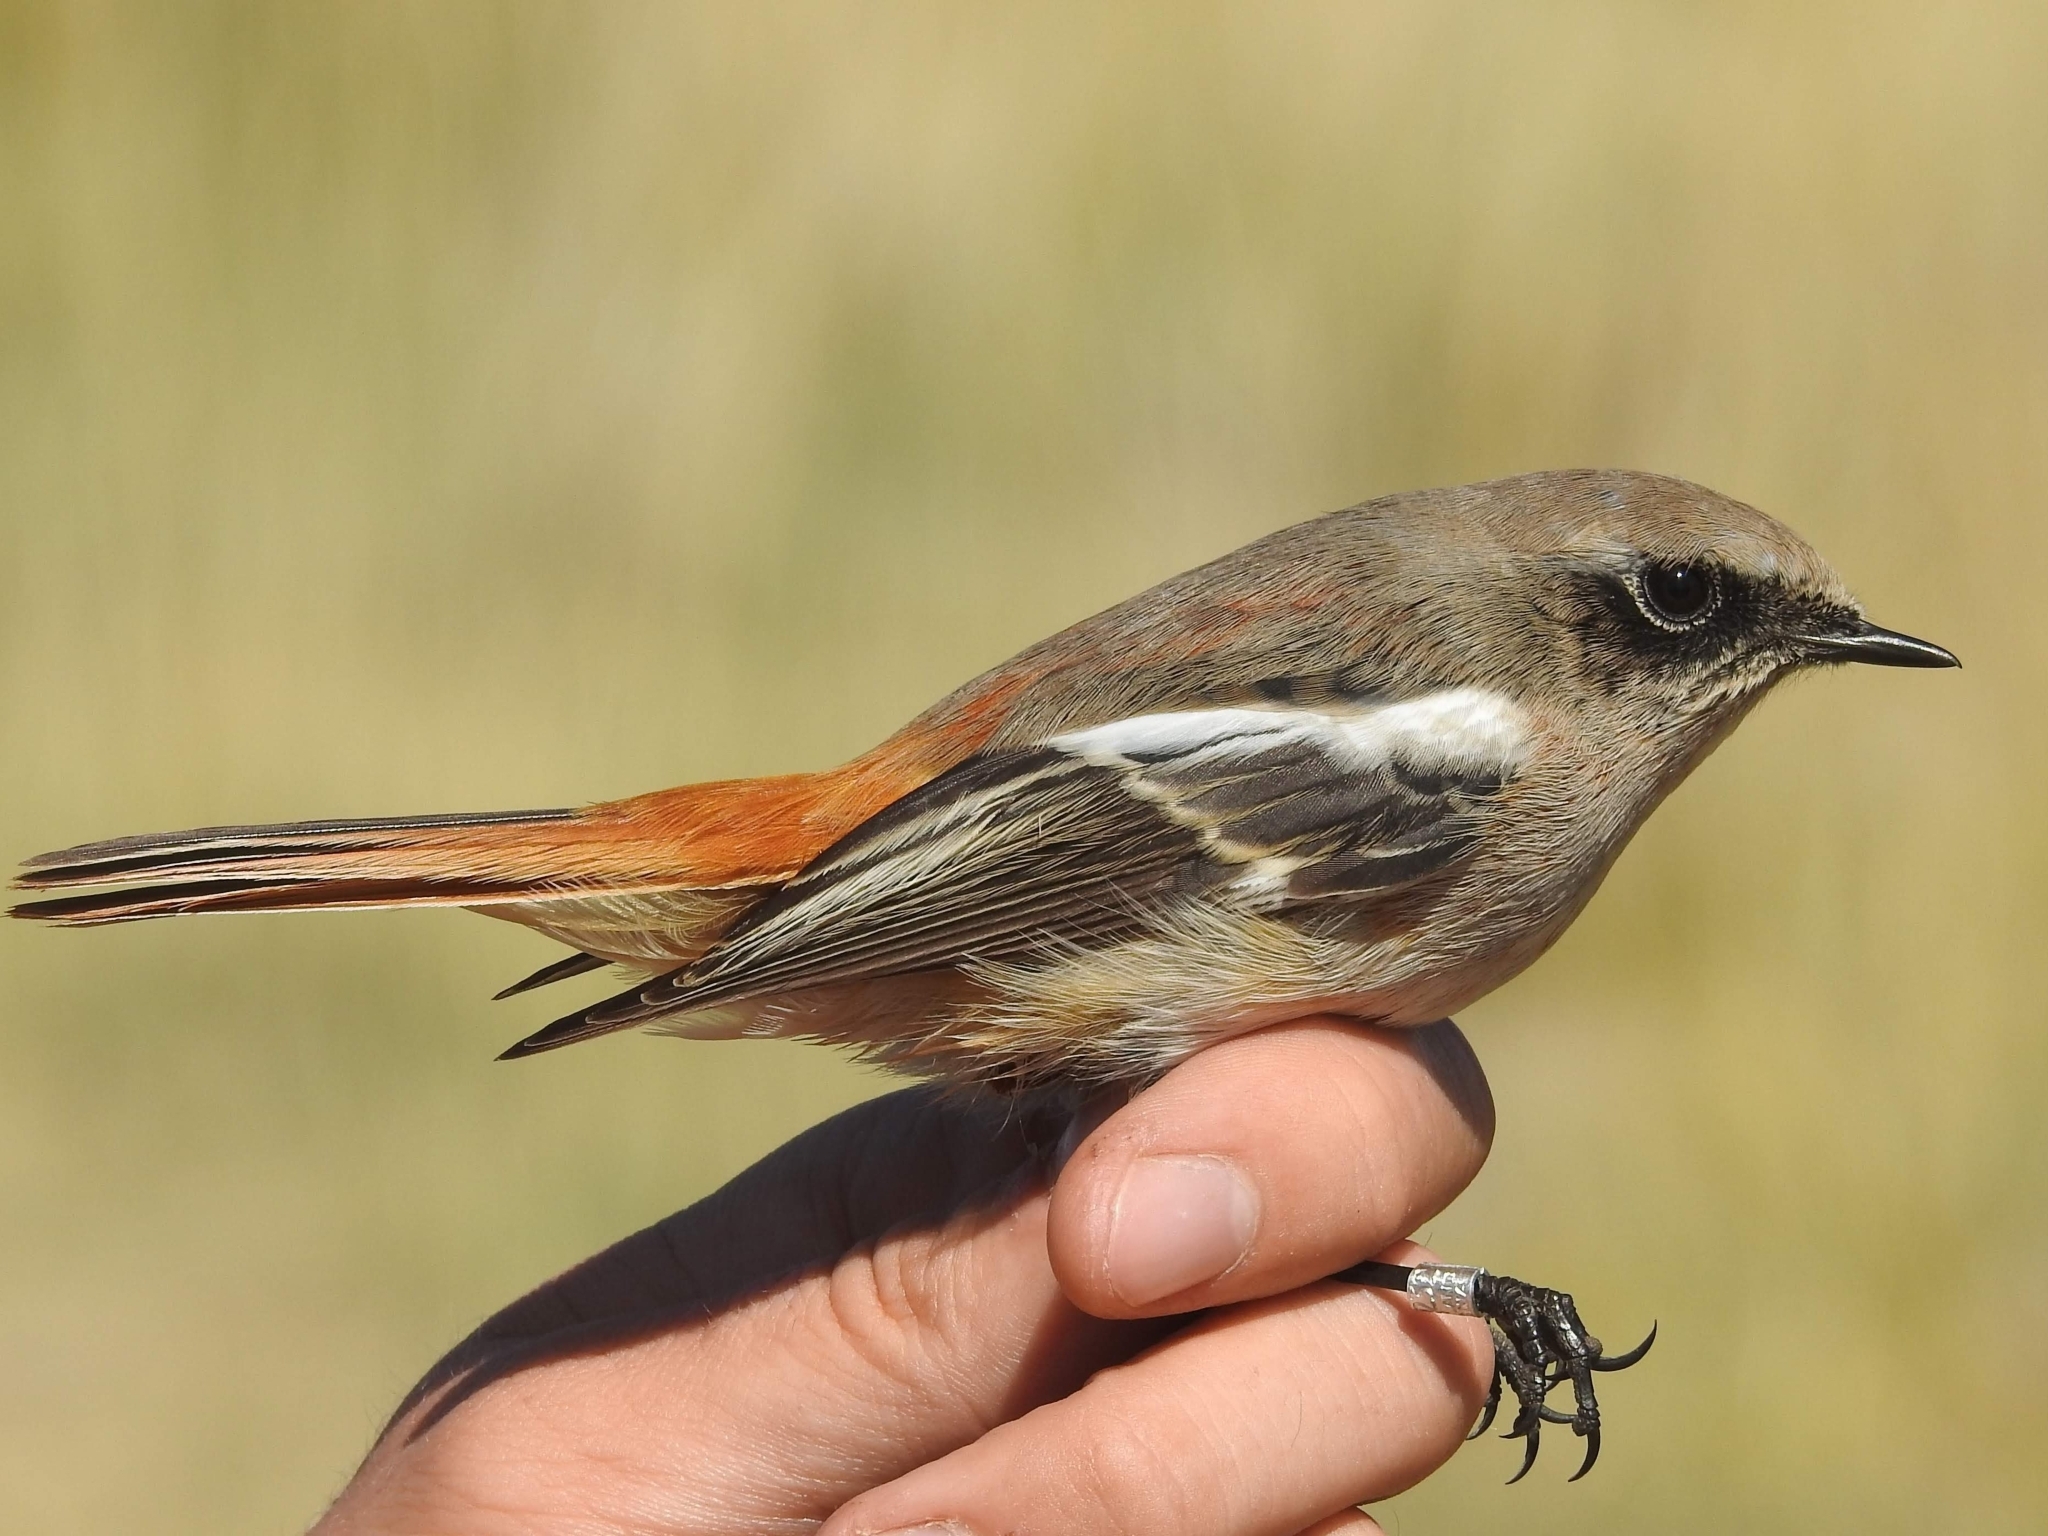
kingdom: Animalia
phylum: Chordata
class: Aves
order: Passeriformes
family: Muscicapidae
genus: Phoenicurus
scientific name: Phoenicurus erythronotus
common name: Eversmann's redstart
